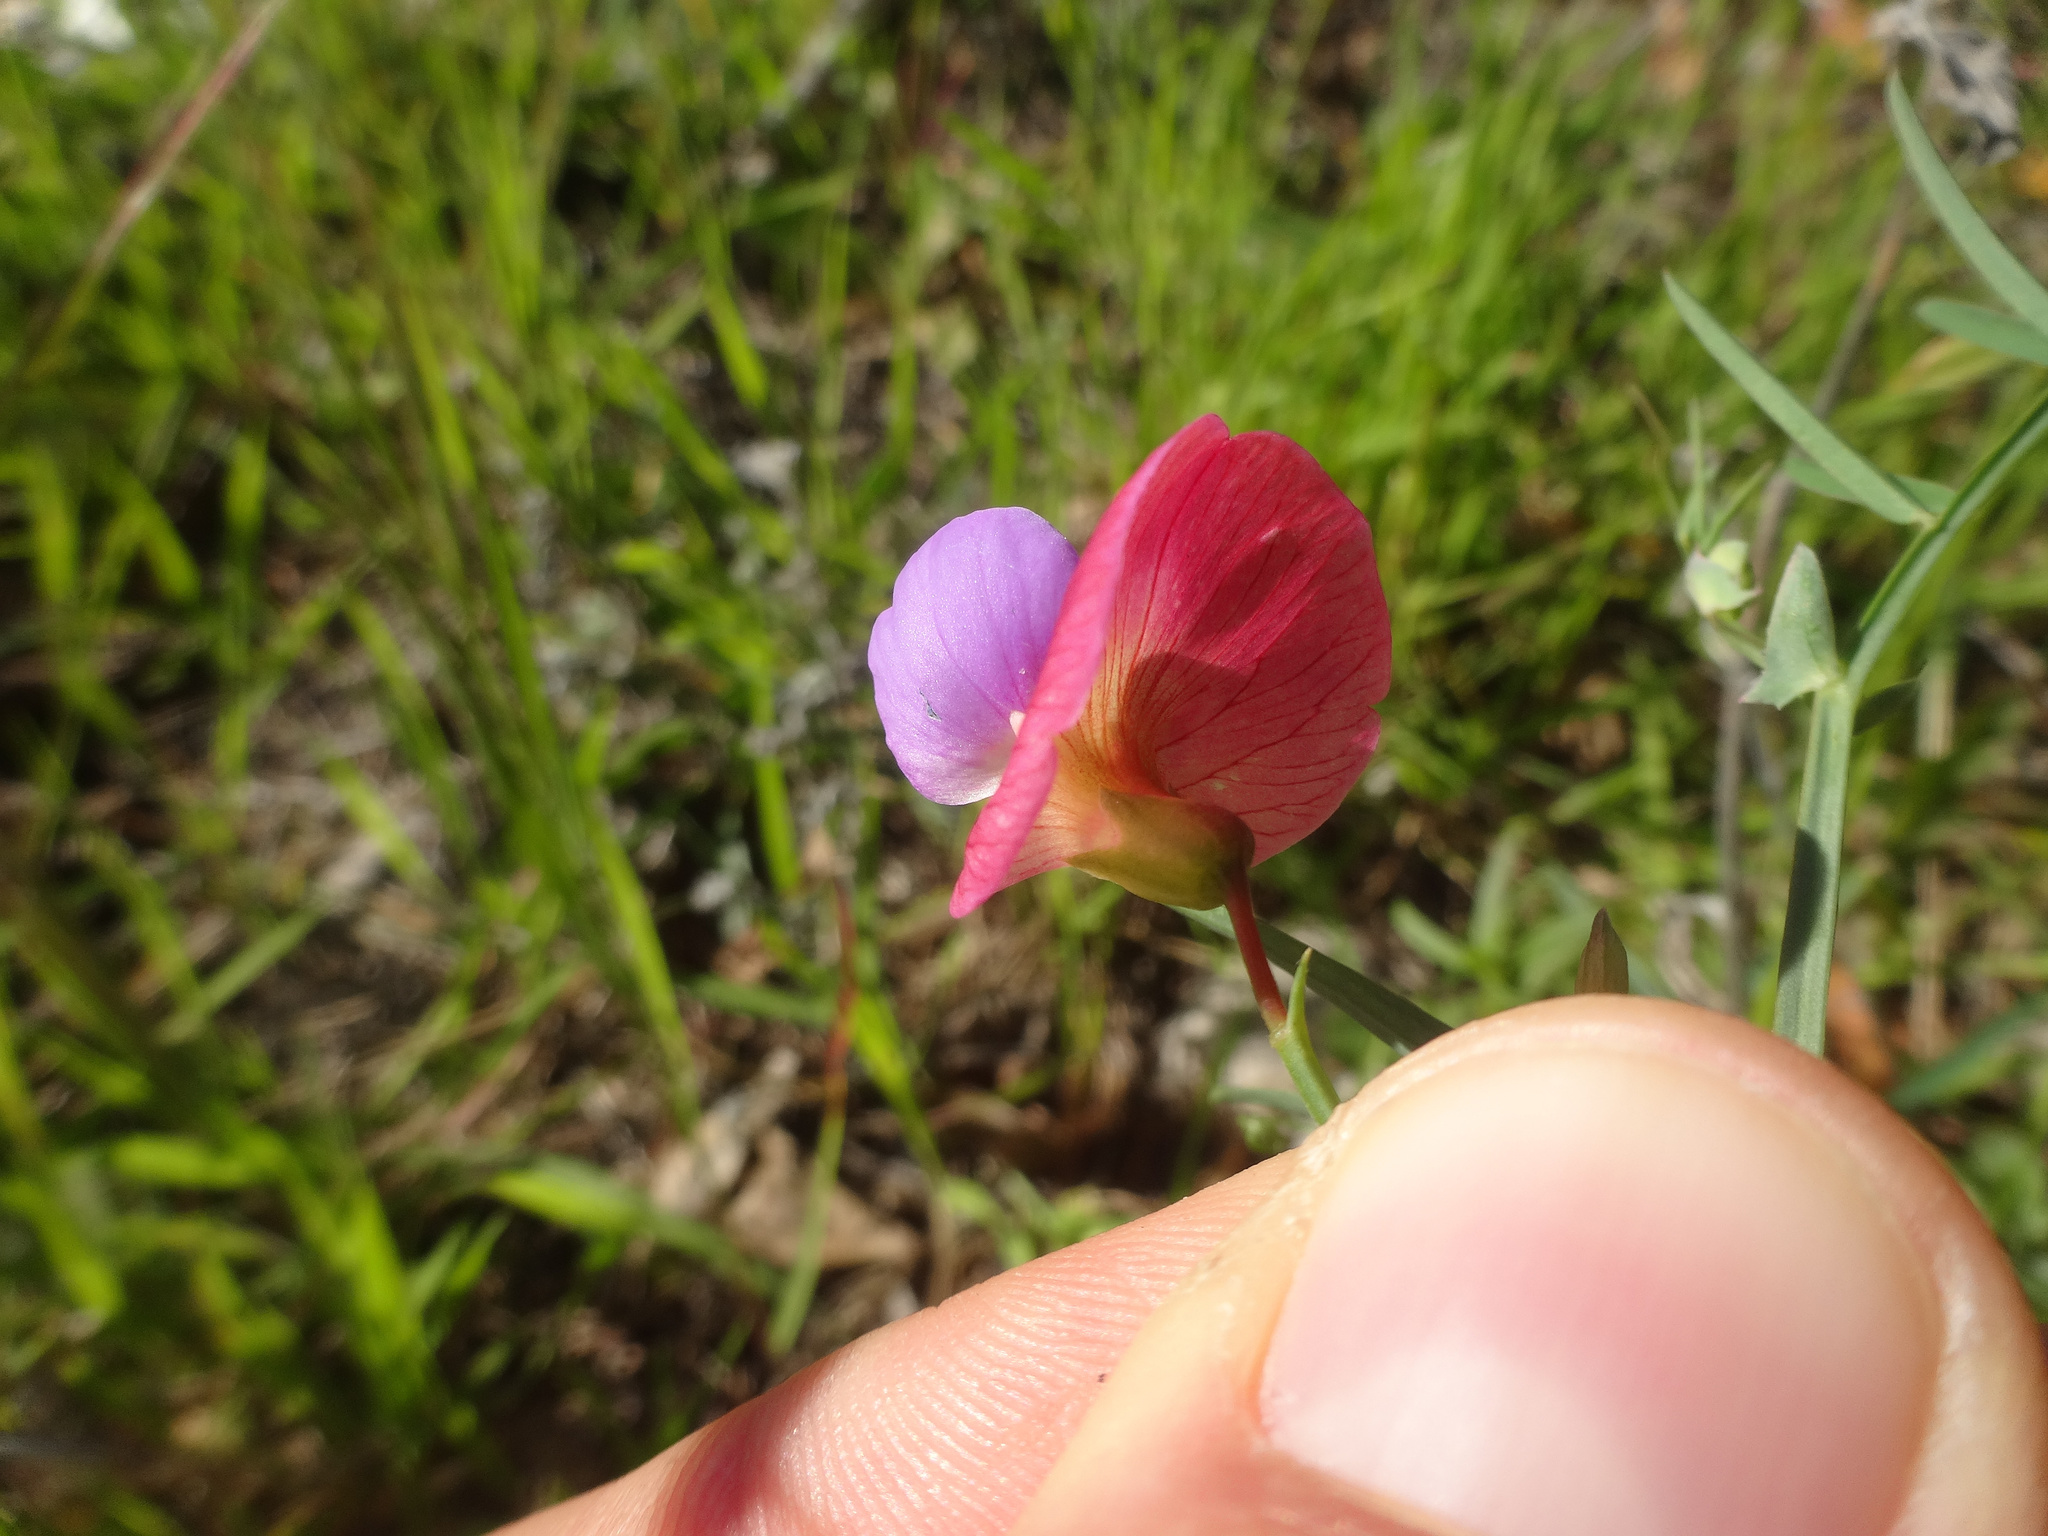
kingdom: Plantae
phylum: Tracheophyta
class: Magnoliopsida
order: Fabales
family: Fabaceae
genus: Lathyrus
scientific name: Lathyrus clymenum
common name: Spanish vetchling
